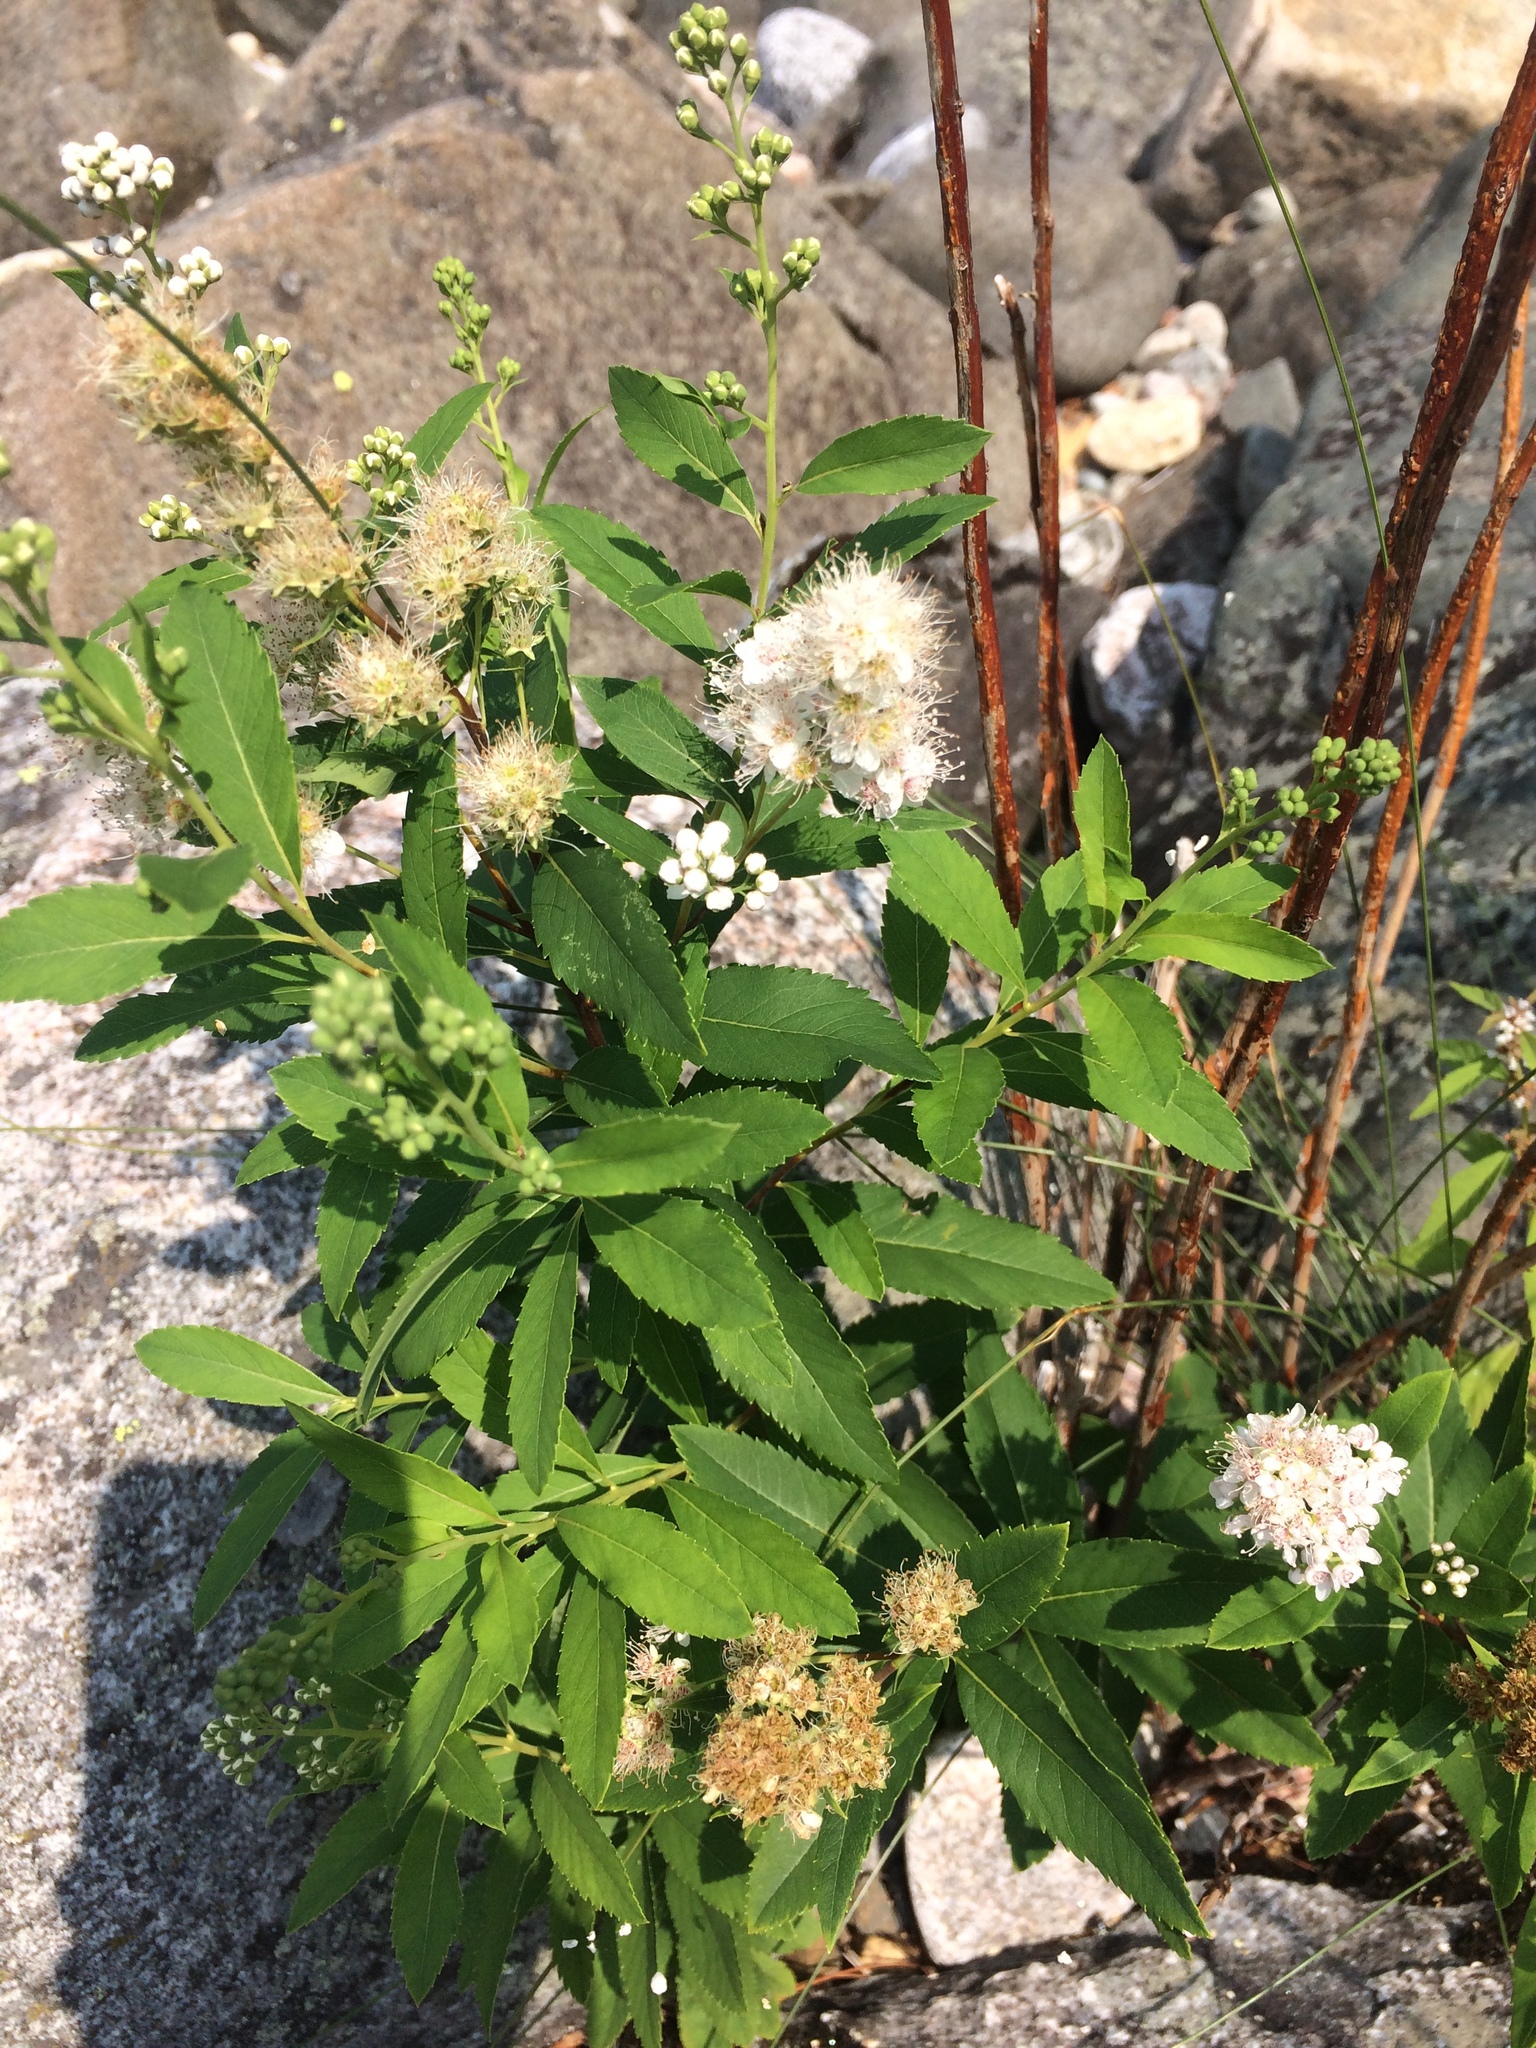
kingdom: Plantae
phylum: Tracheophyta
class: Magnoliopsida
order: Rosales
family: Rosaceae
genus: Spiraea
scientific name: Spiraea alba
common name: Pale bridewort
